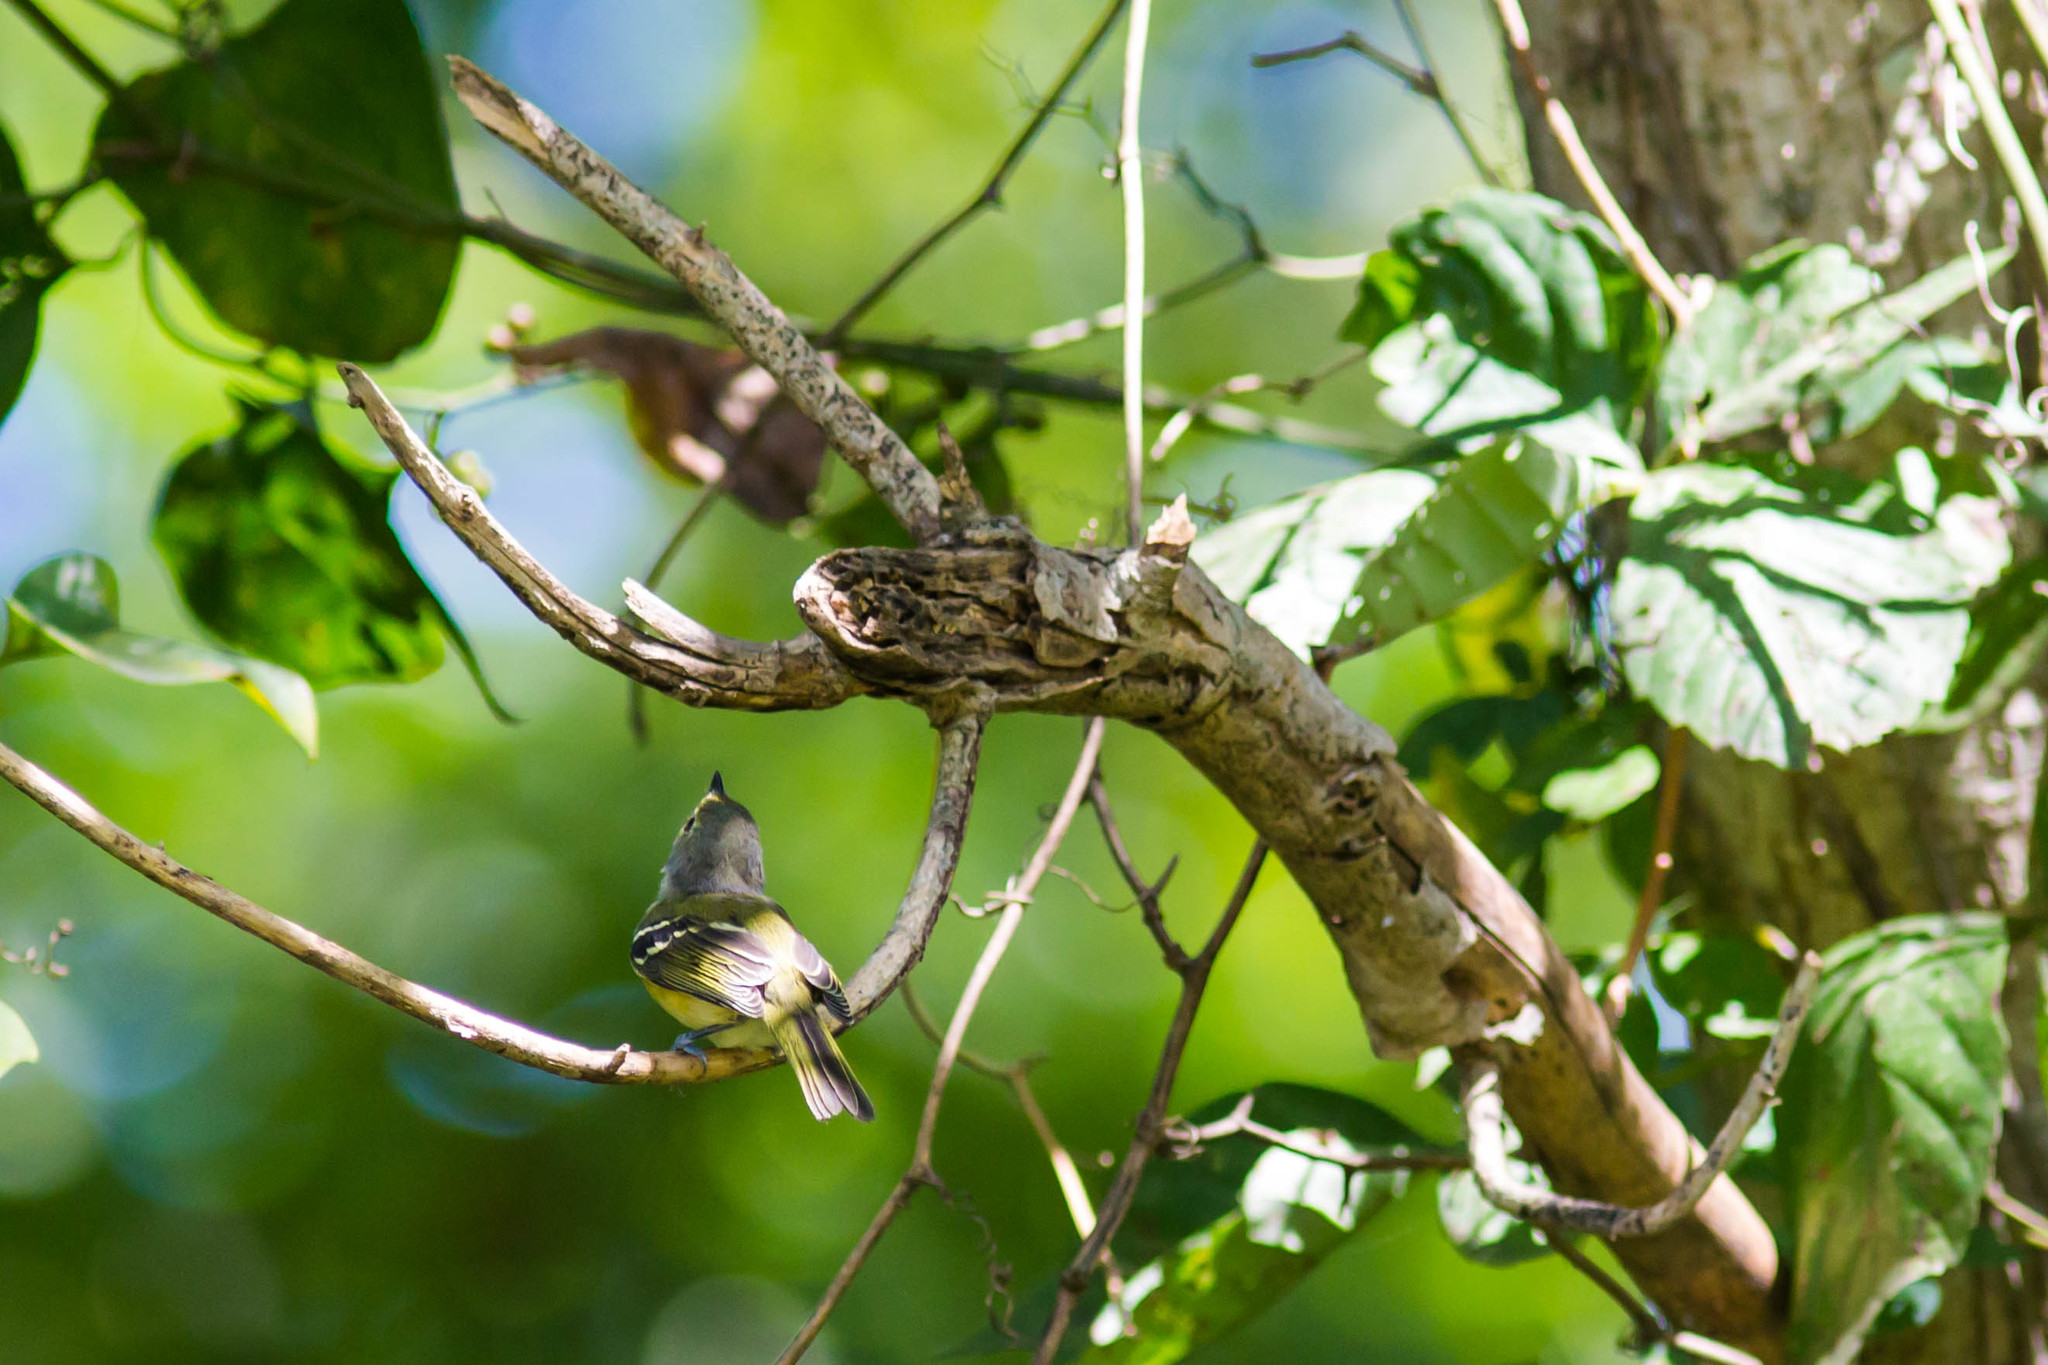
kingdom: Animalia
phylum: Chordata
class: Aves
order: Passeriformes
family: Vireonidae
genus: Vireo
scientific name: Vireo griseus
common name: White-eyed vireo
